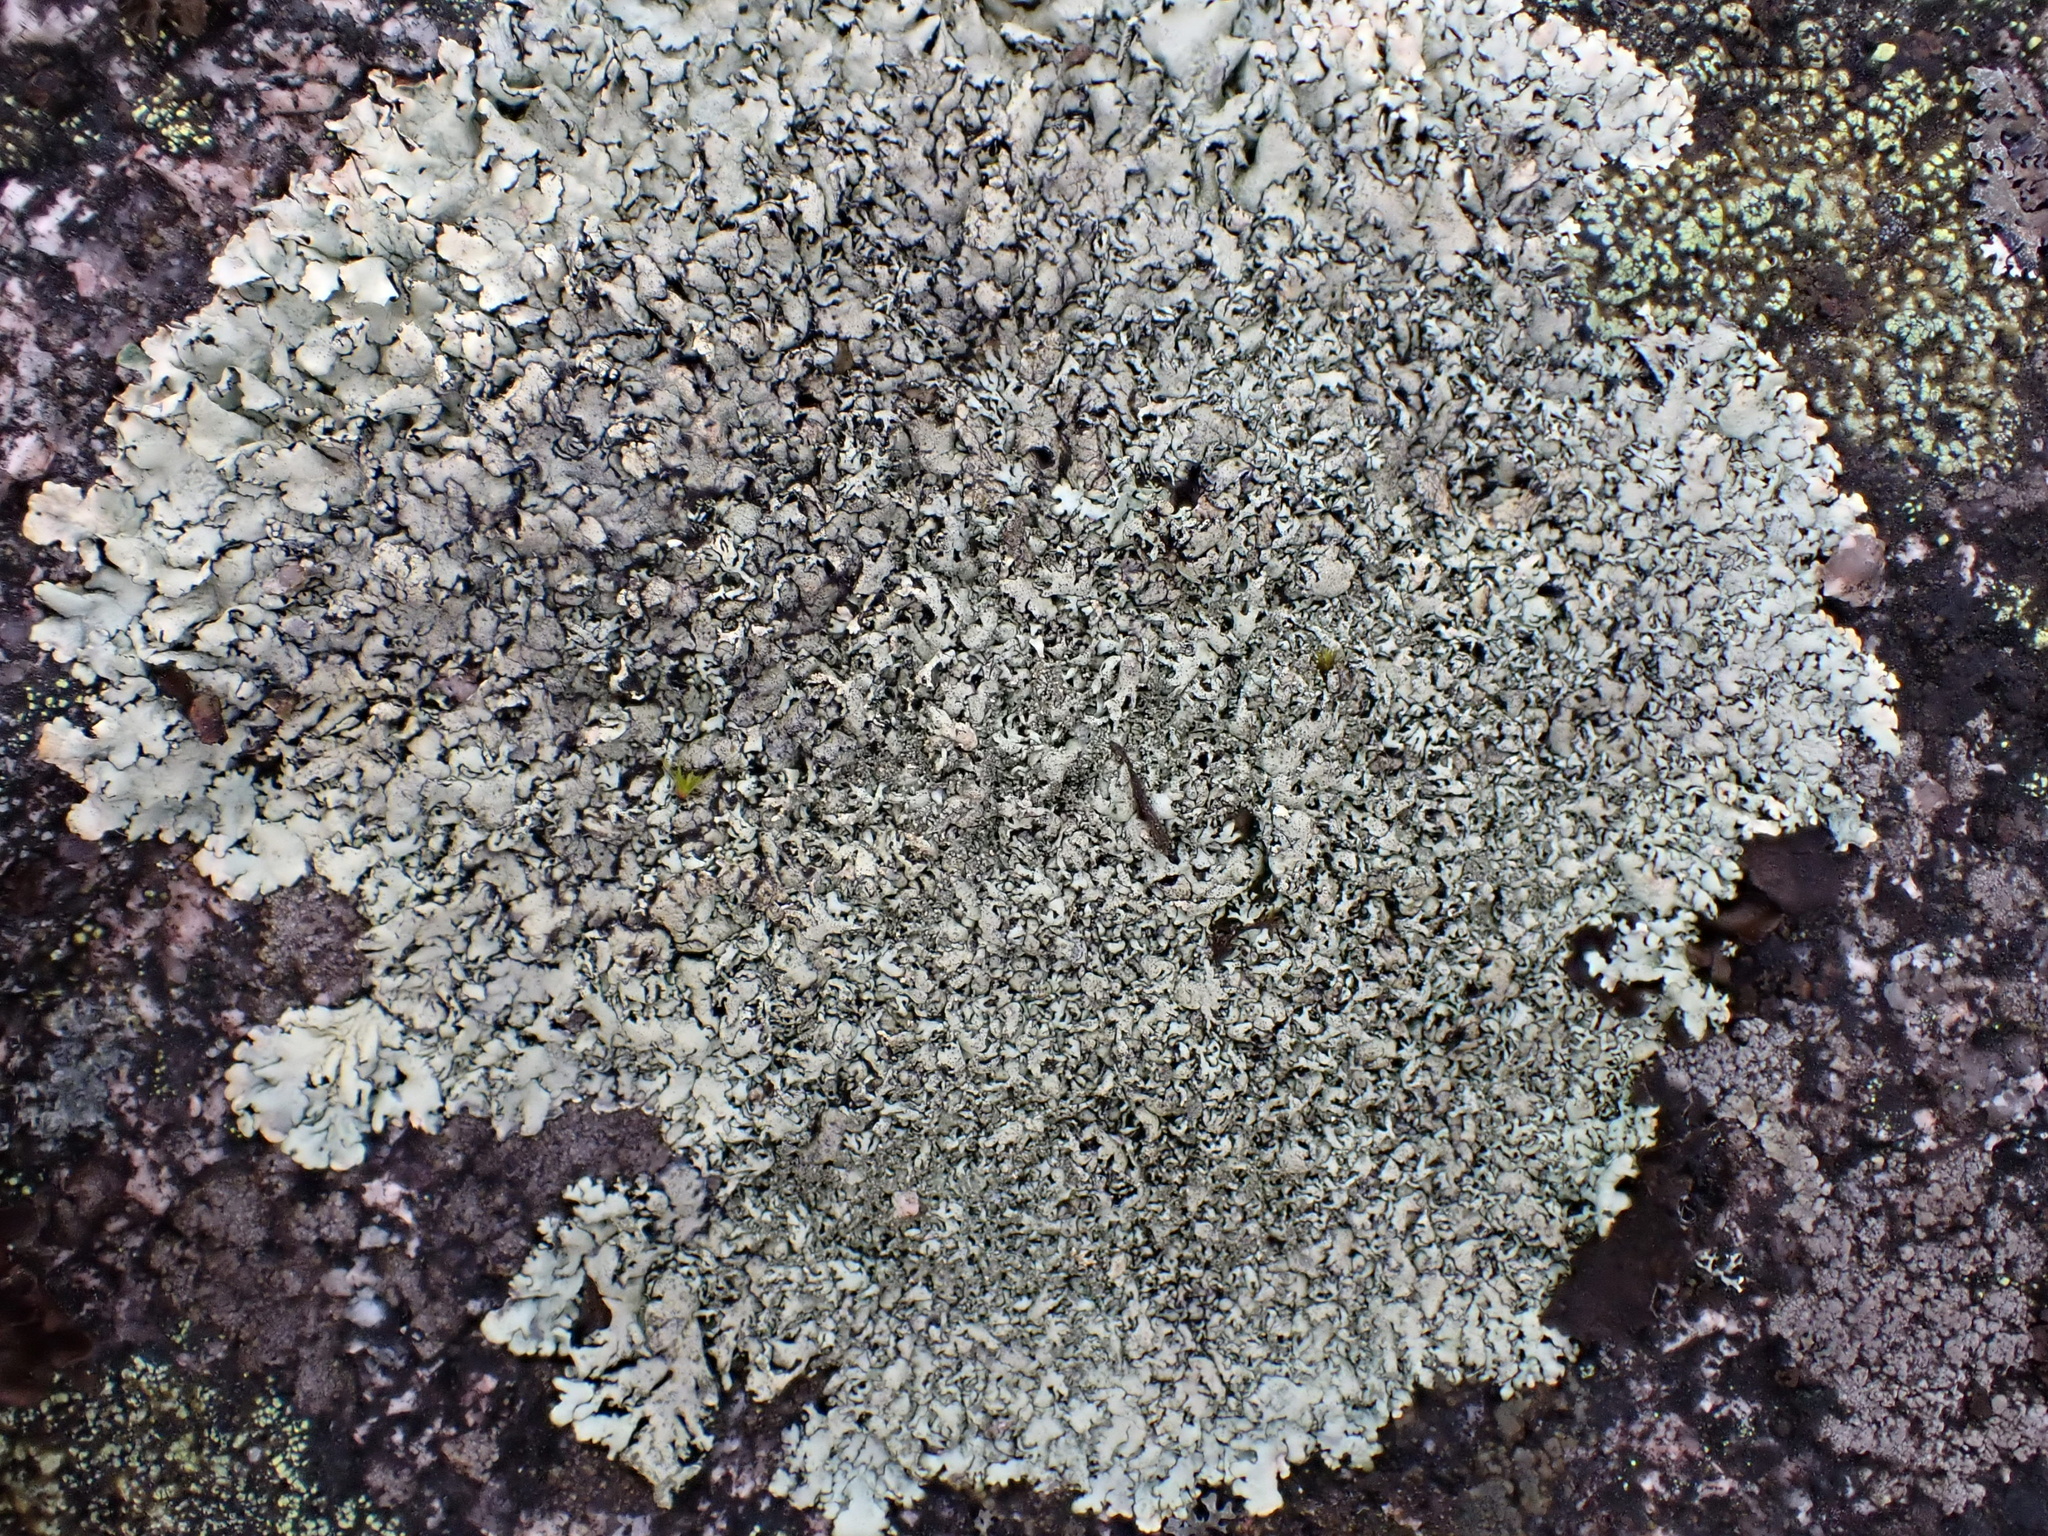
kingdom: Fungi
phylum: Ascomycota
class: Lecanoromycetes
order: Lecanorales
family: Parmeliaceae
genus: Xanthoparmelia
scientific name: Xanthoparmelia conspersa
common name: Peppered rock shield
